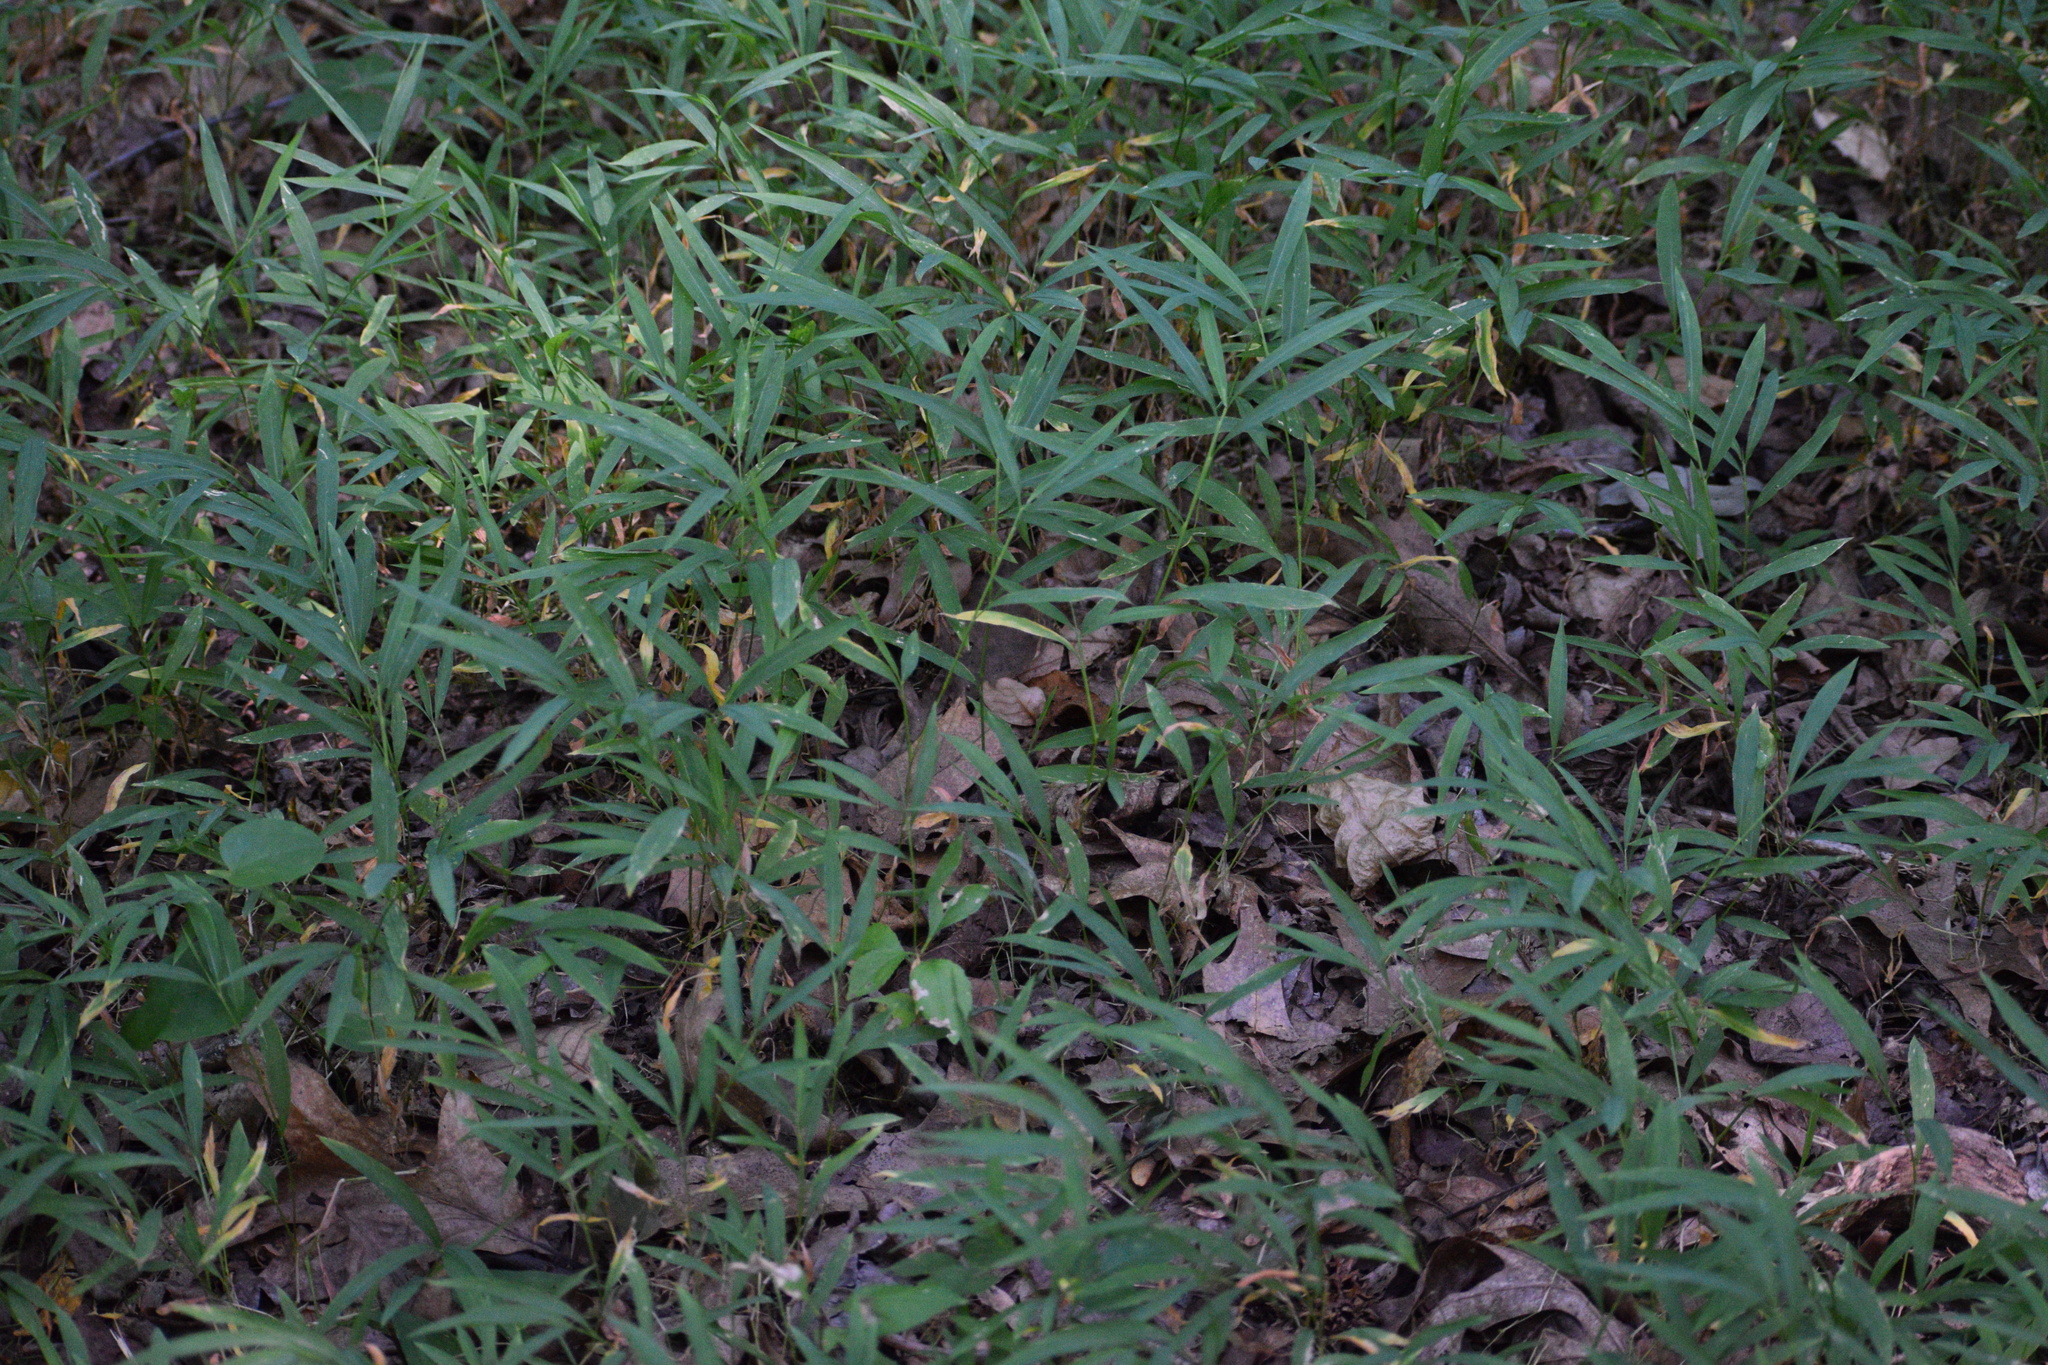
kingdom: Plantae
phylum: Tracheophyta
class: Liliopsida
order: Poales
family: Poaceae
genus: Microstegium
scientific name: Microstegium vimineum
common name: Japanese stiltgrass
